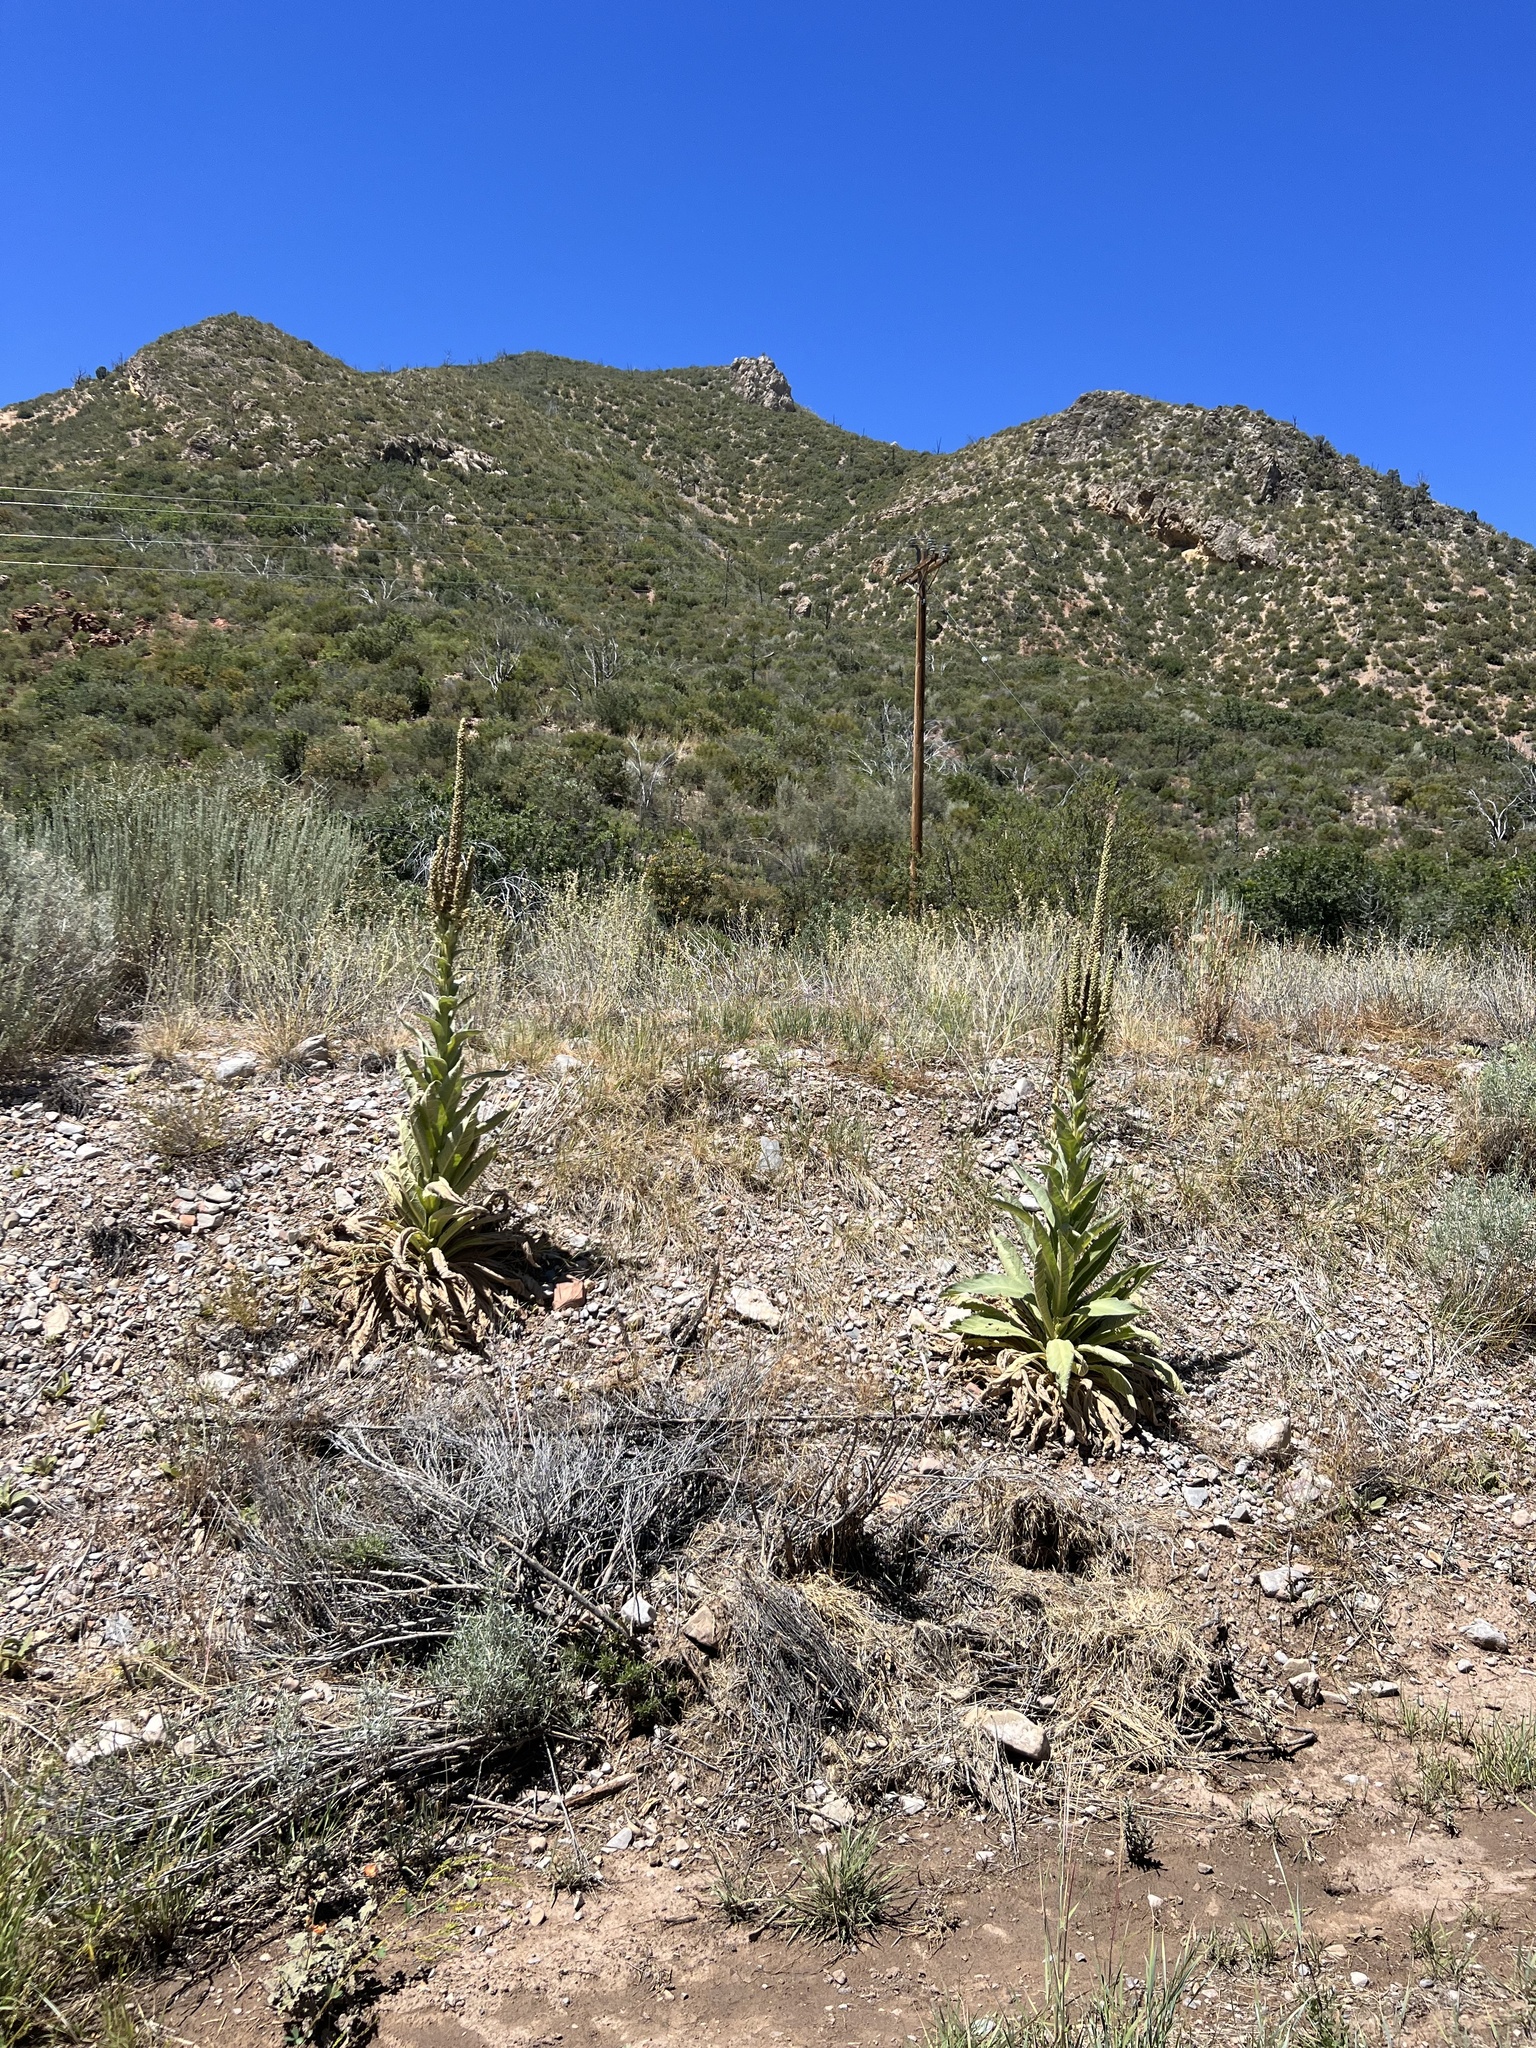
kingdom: Plantae
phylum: Tracheophyta
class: Magnoliopsida
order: Lamiales
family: Scrophulariaceae
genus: Verbascum
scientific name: Verbascum thapsus
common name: Common mullein
